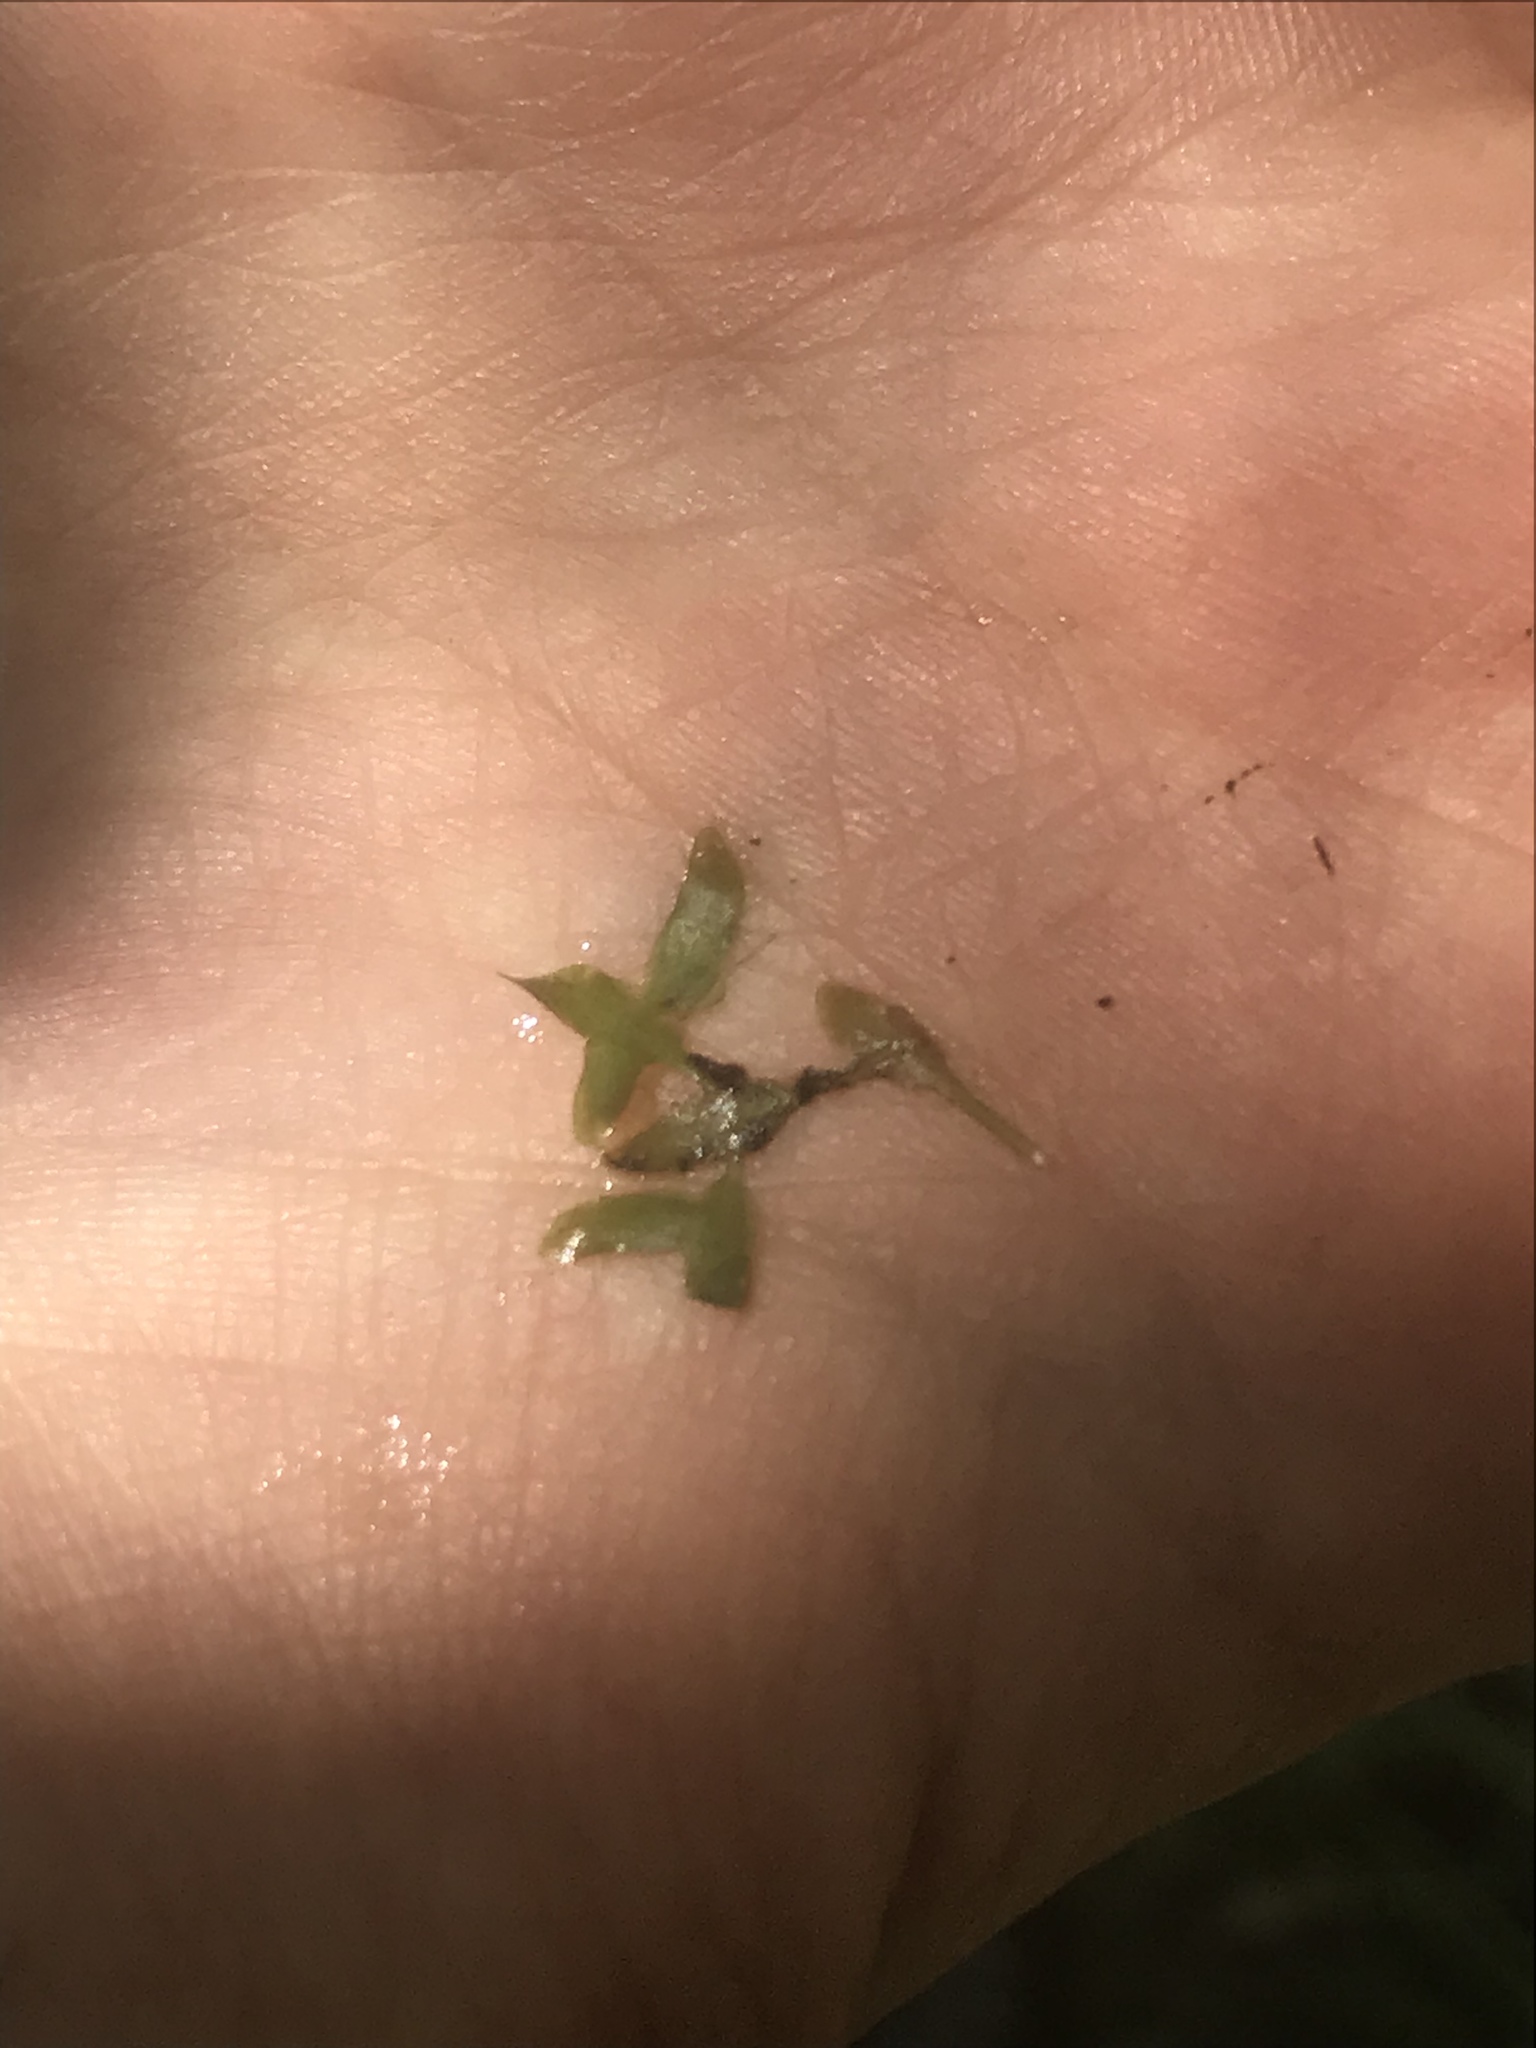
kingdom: Plantae
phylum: Tracheophyta
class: Liliopsida
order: Alismatales
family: Araceae
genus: Lemna
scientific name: Lemna trisulca
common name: Ivy-leaved duckweed
